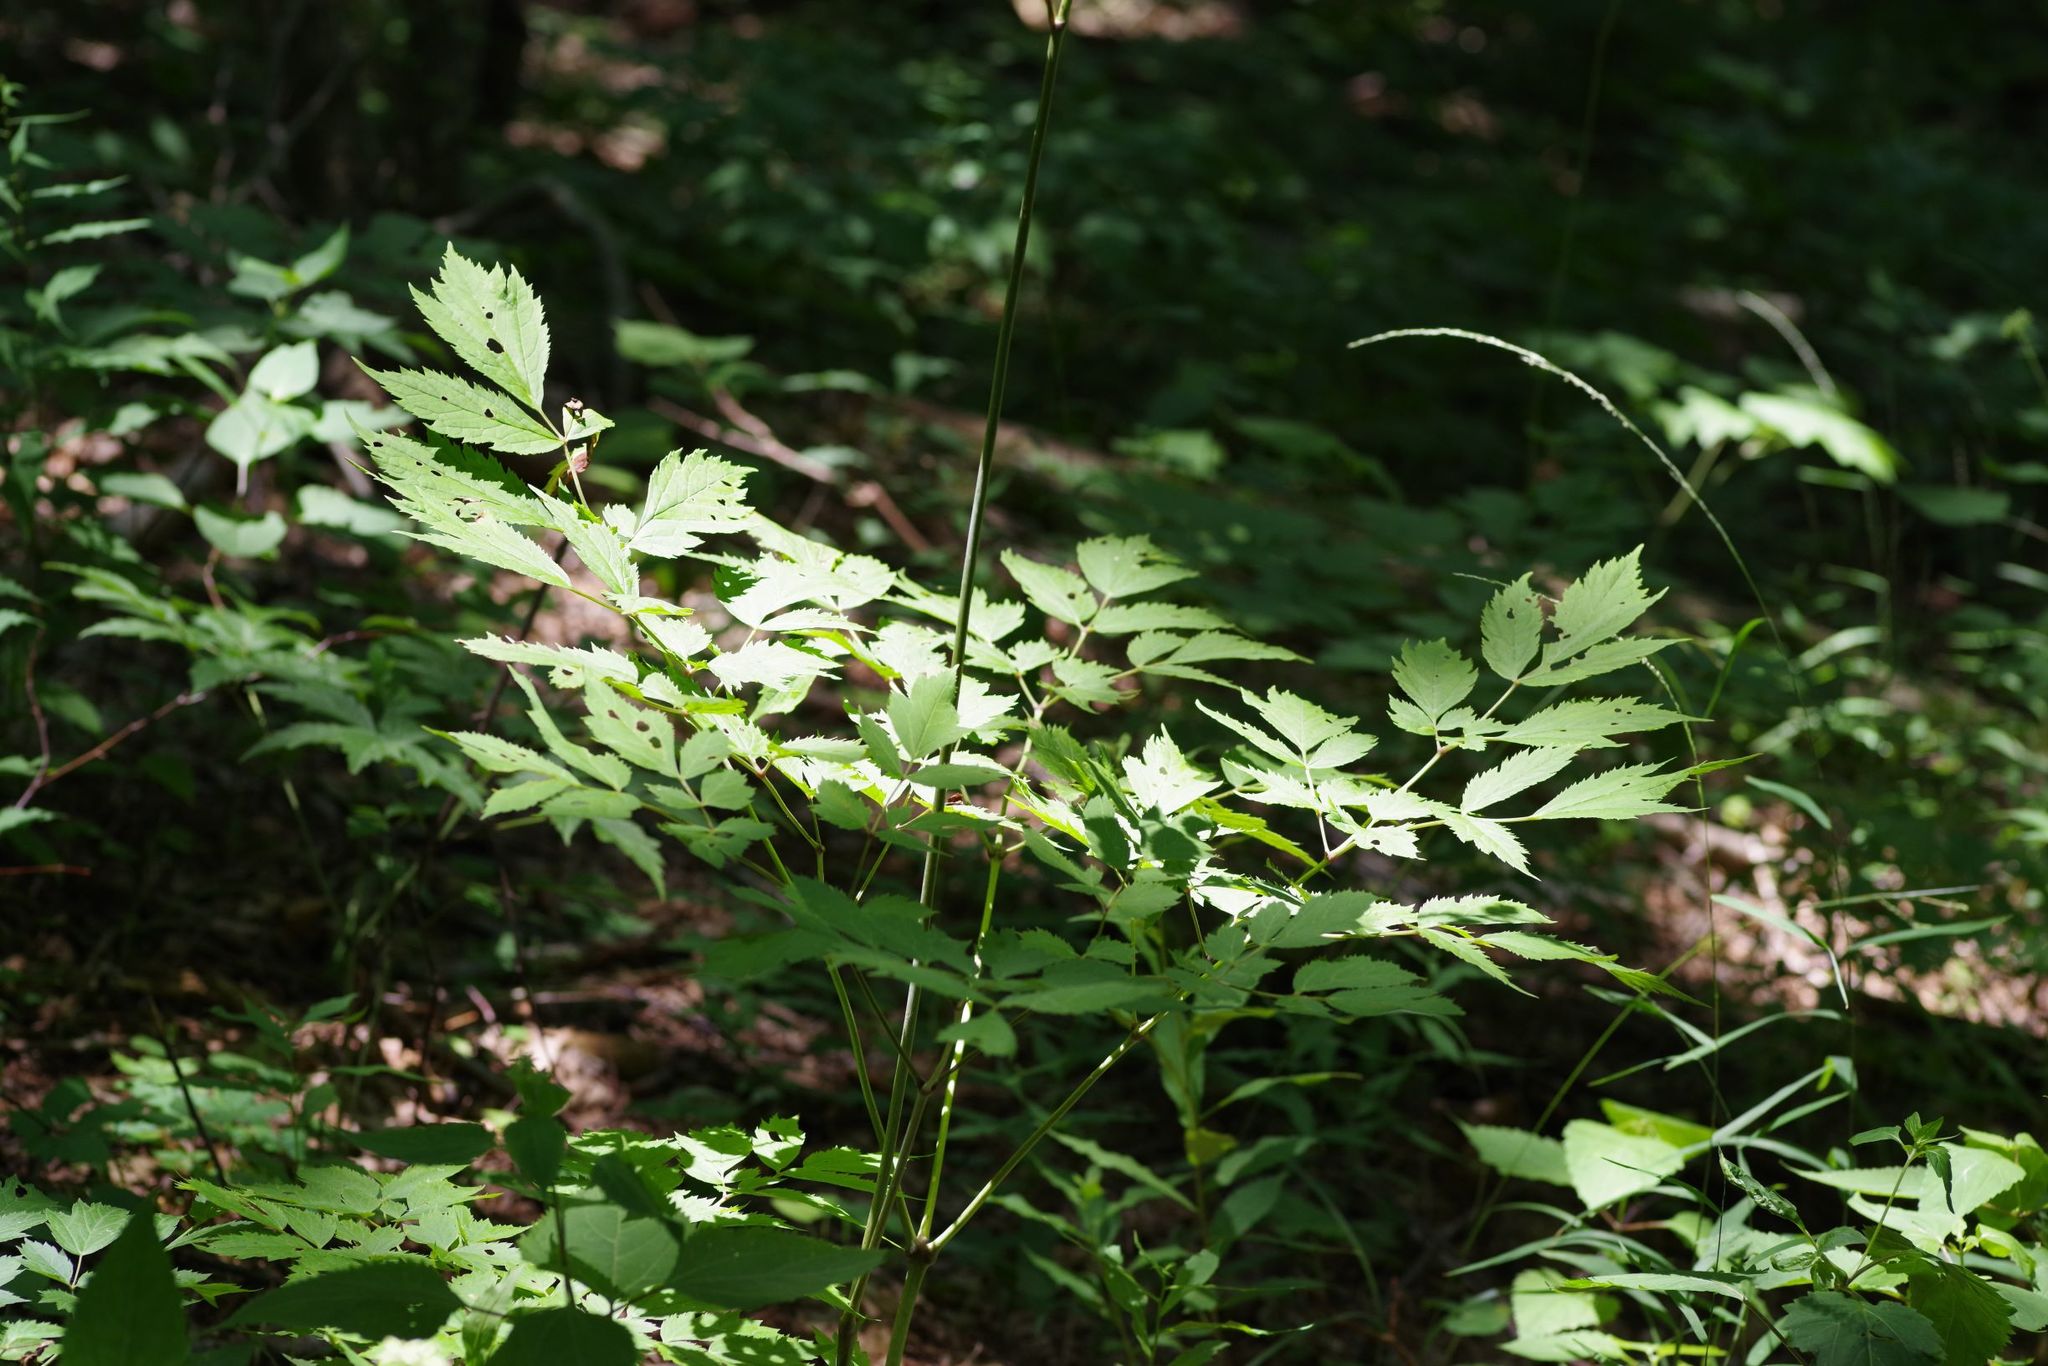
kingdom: Plantae
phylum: Tracheophyta
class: Magnoliopsida
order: Ranunculales
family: Ranunculaceae
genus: Actaea
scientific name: Actaea racemosa
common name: Black cohosh
